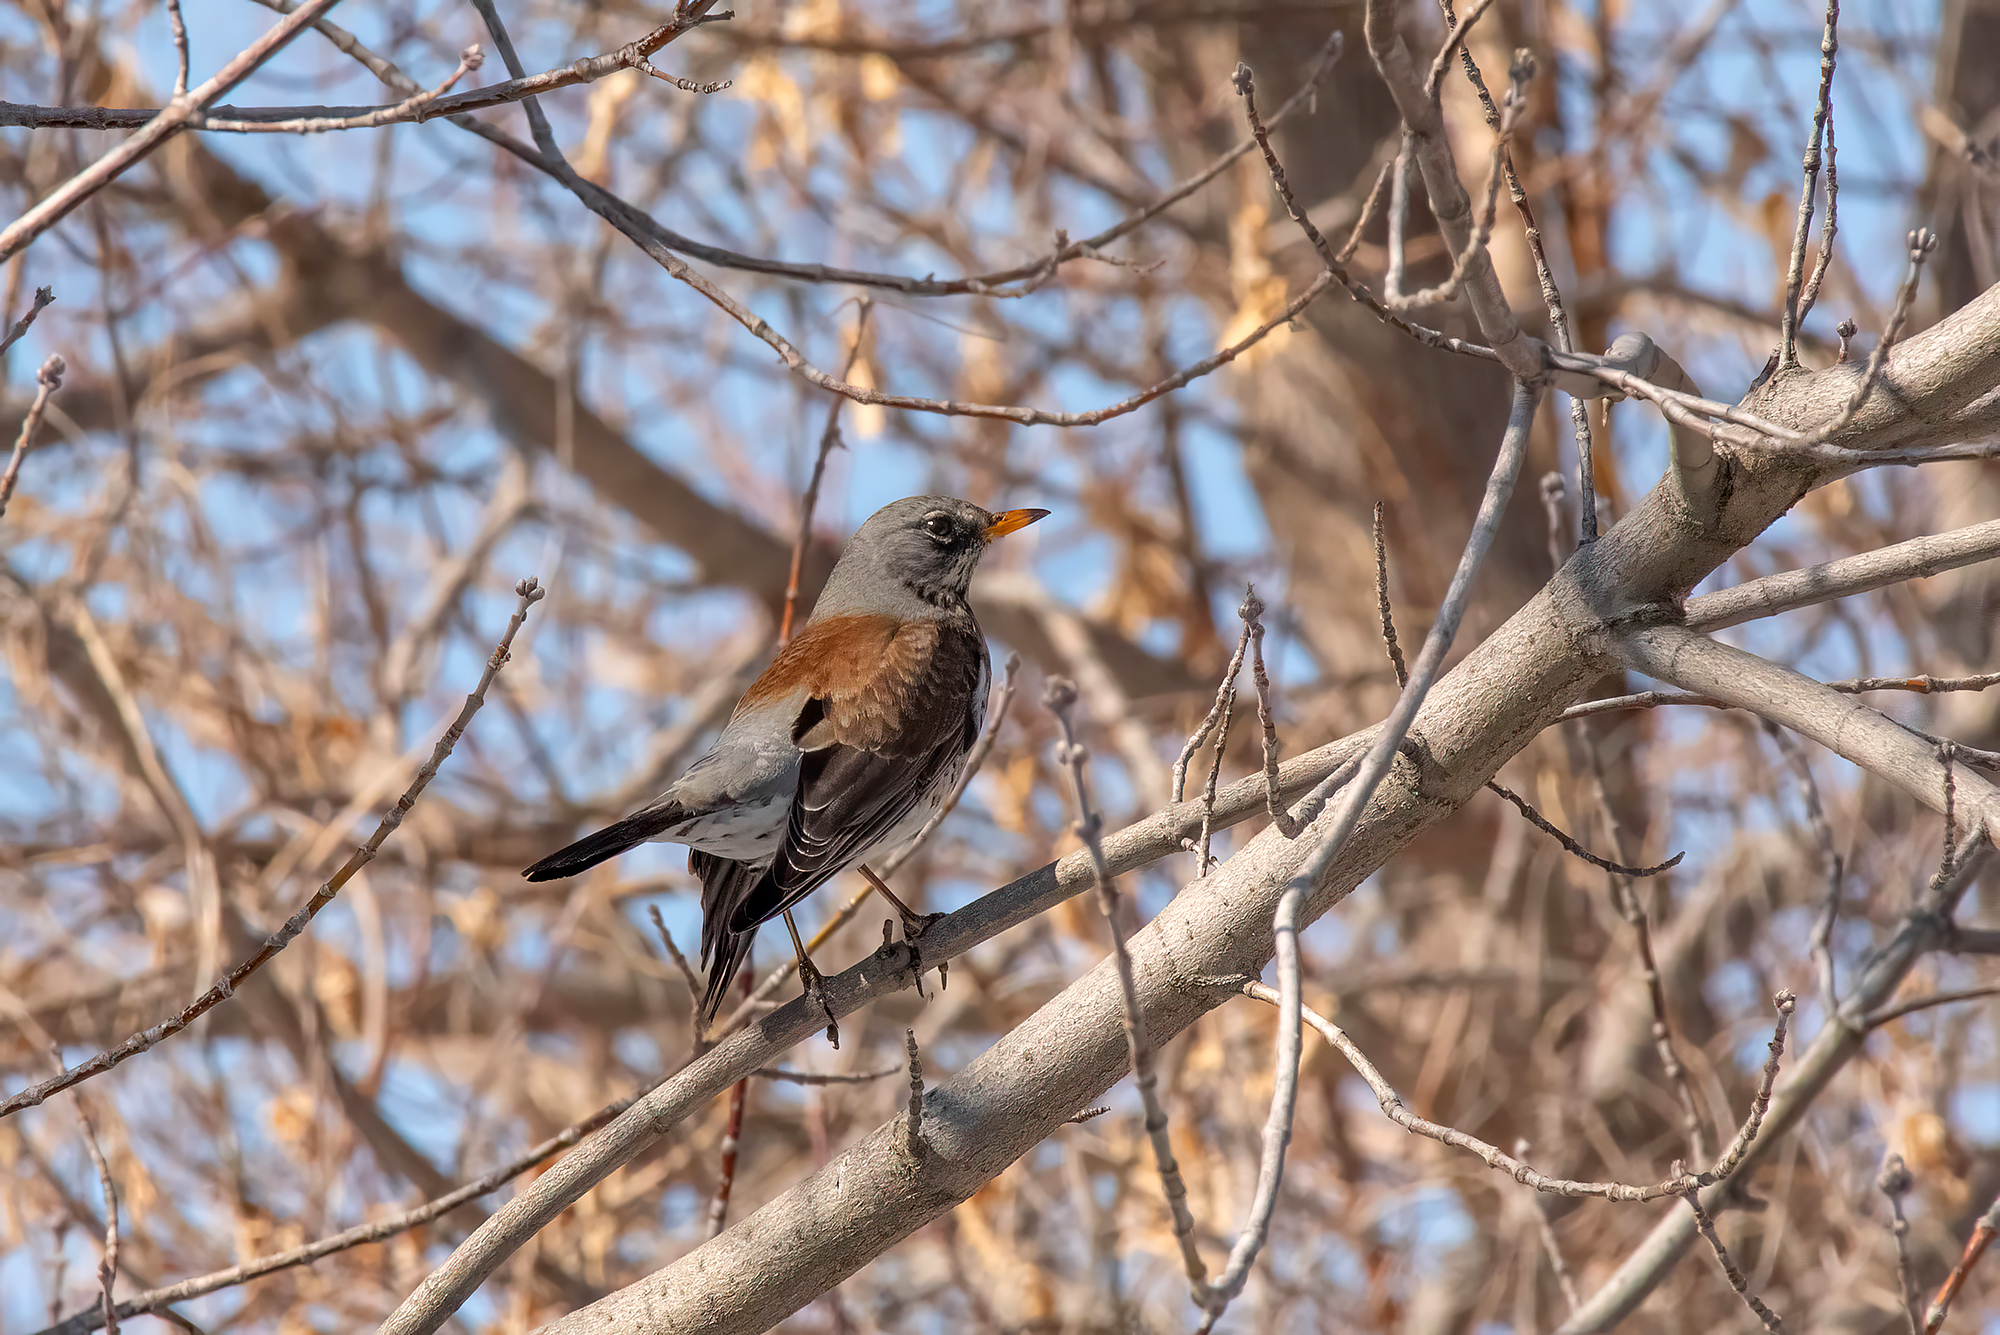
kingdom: Animalia
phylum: Chordata
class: Aves
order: Passeriformes
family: Turdidae
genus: Turdus
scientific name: Turdus pilaris
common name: Fieldfare
